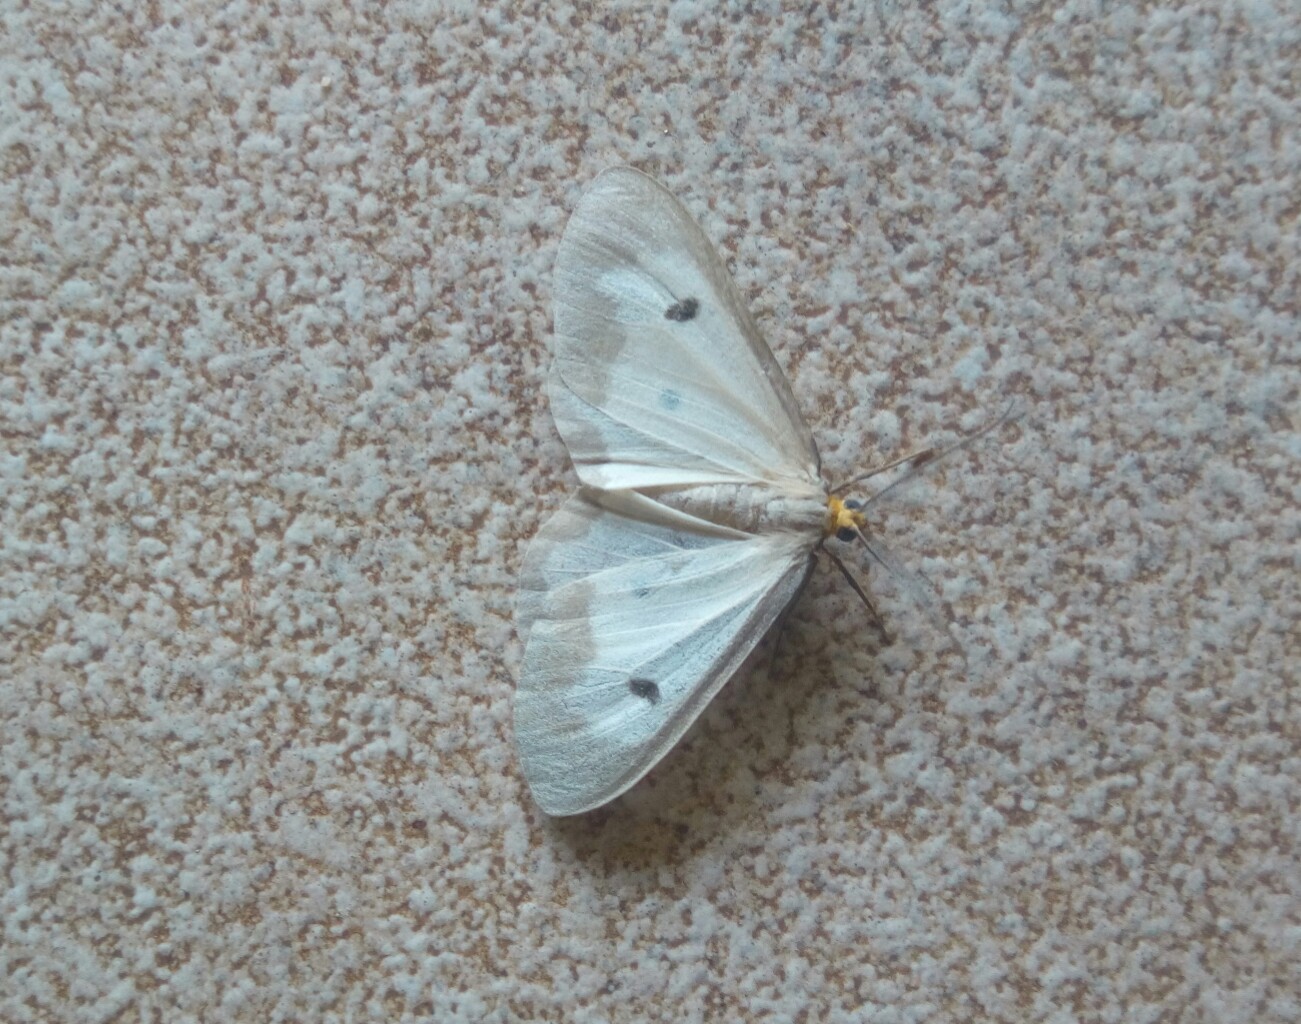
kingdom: Animalia
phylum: Arthropoda
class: Insecta
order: Lepidoptera
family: Geometridae
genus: Geodena
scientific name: Geodena marginalis
